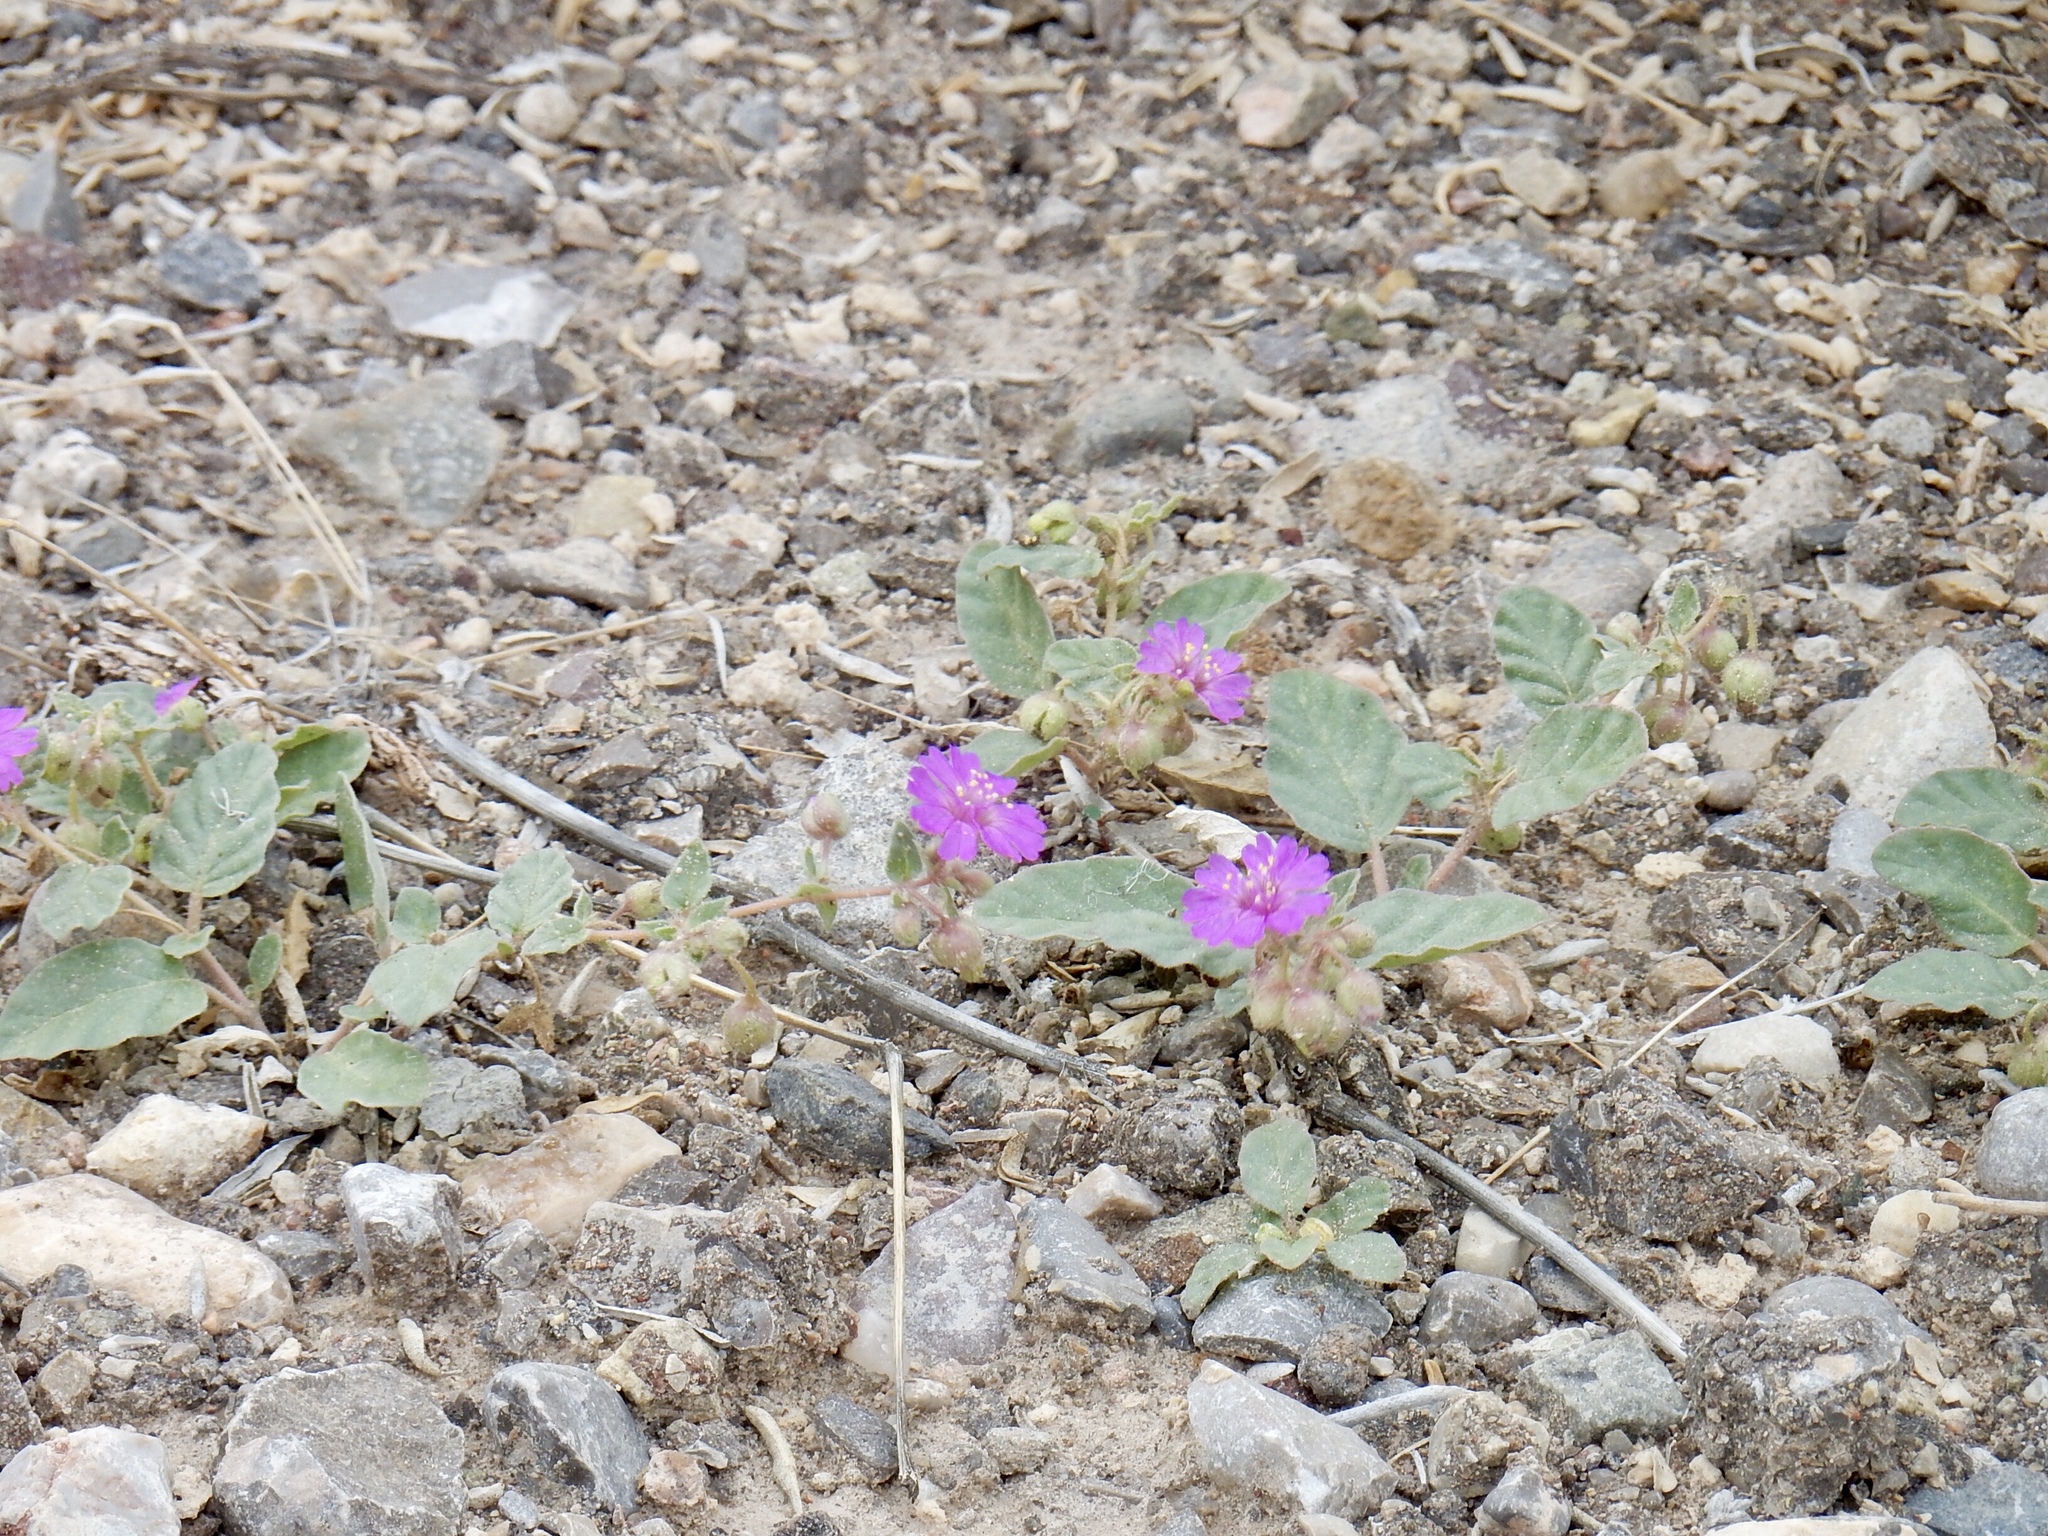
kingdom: Plantae
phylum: Tracheophyta
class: Magnoliopsida
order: Caryophyllales
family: Nyctaginaceae
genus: Allionia
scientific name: Allionia incarnata
